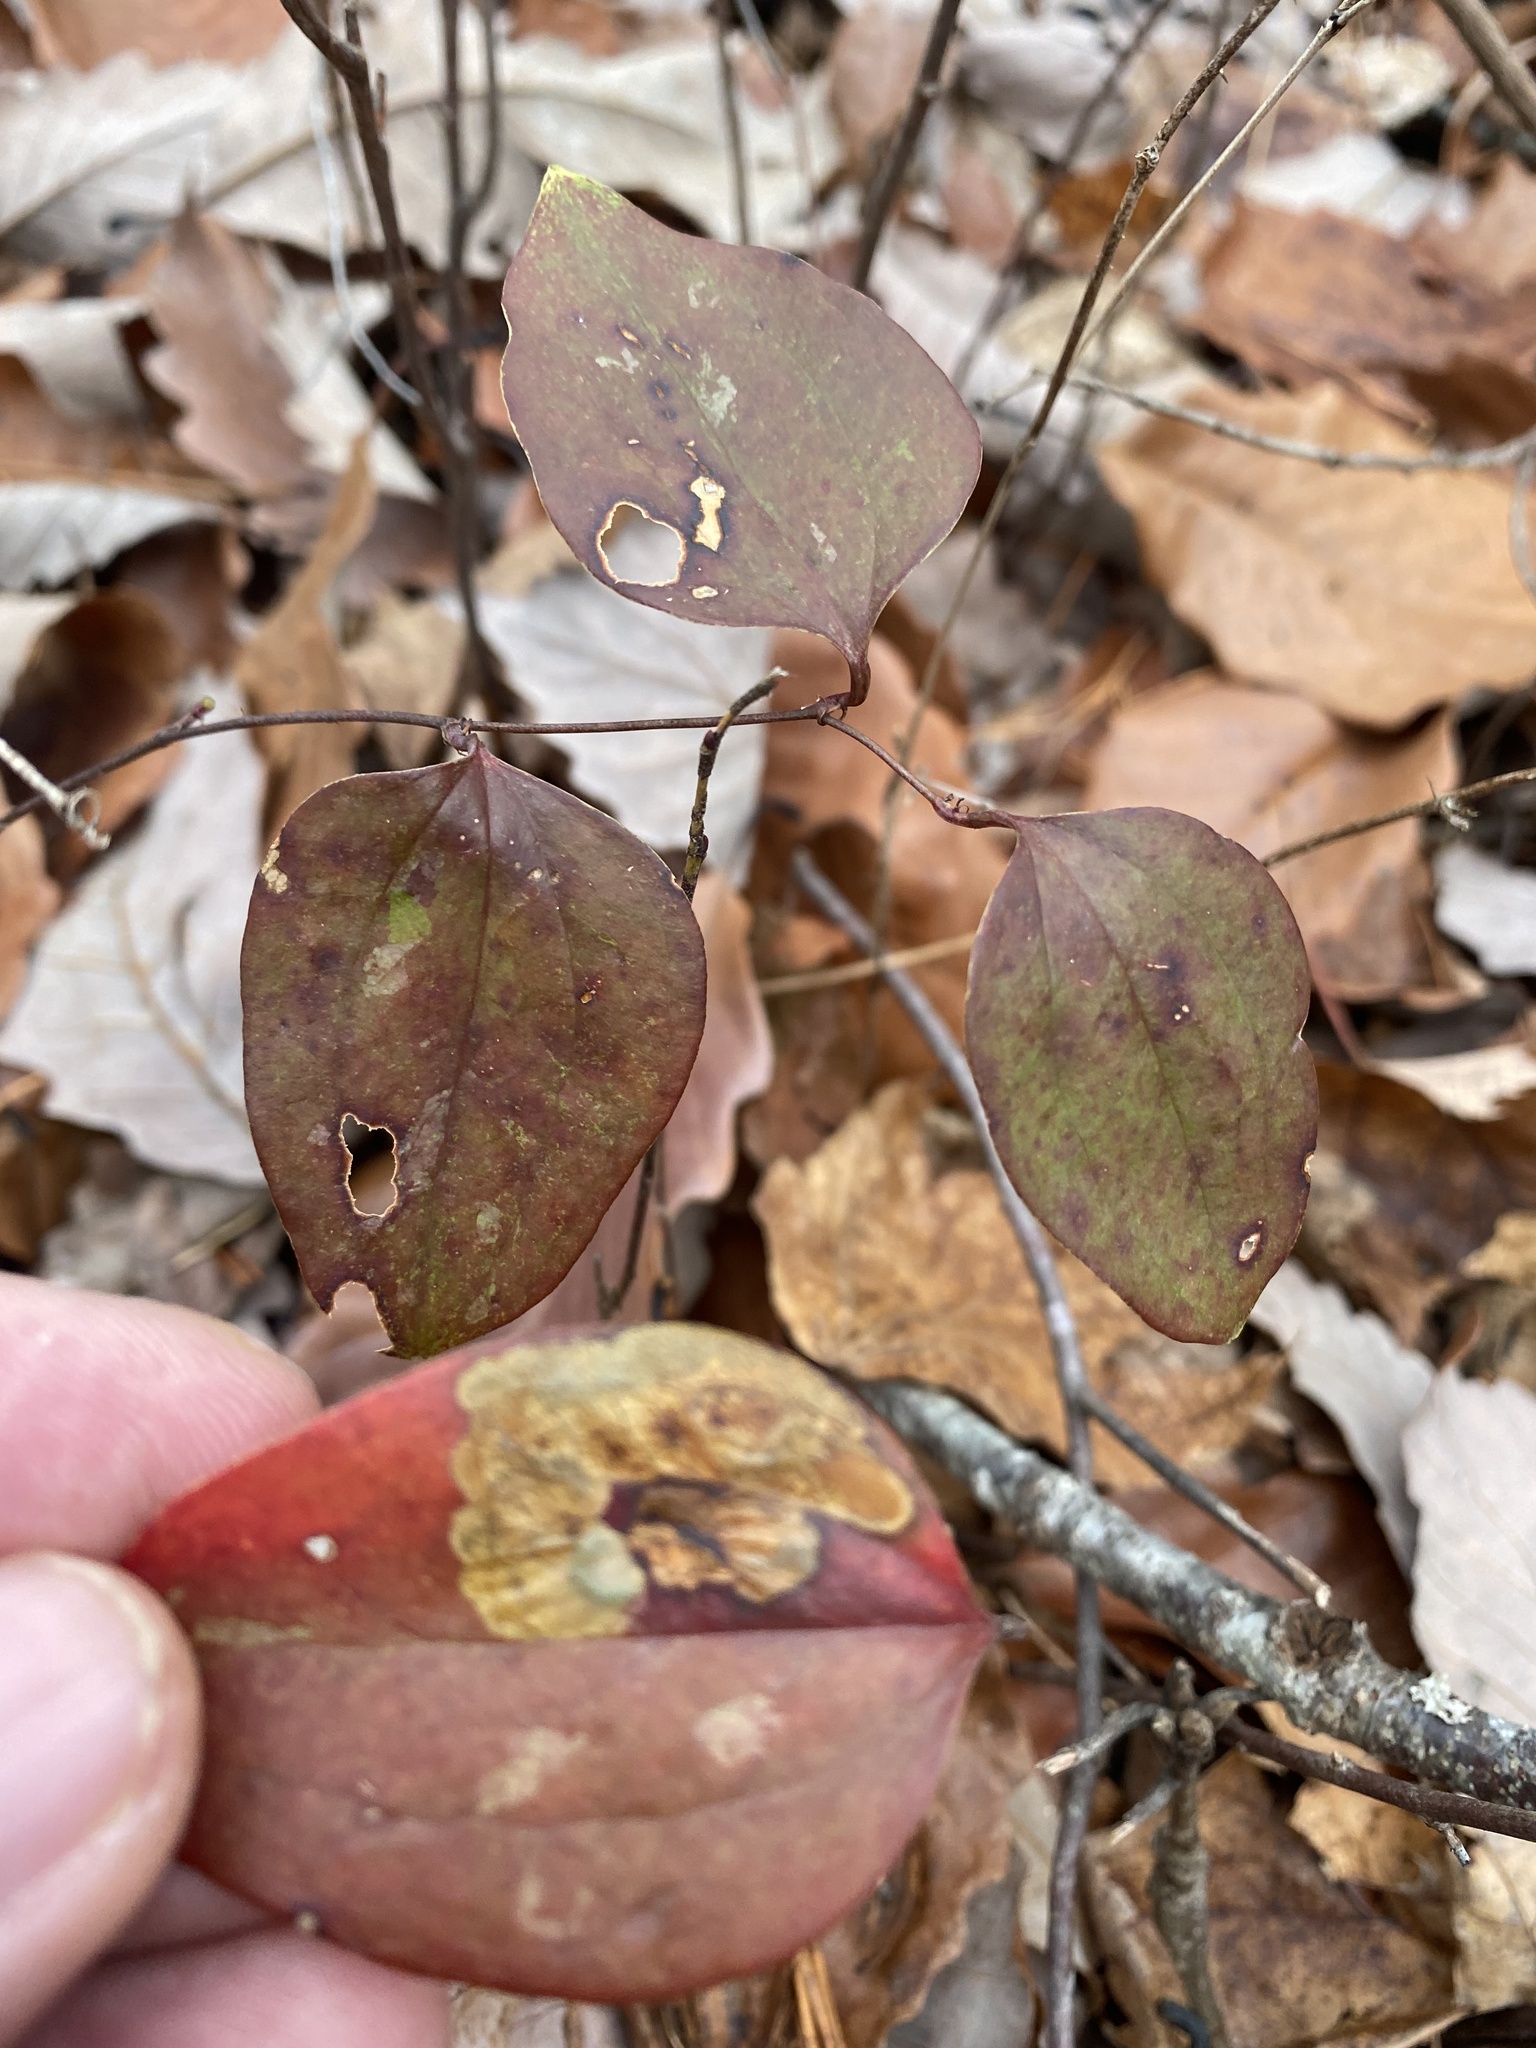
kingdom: Plantae
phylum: Tracheophyta
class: Liliopsida
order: Liliales
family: Smilacaceae
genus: Smilax
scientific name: Smilax glauca
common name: Cat greenbrier
